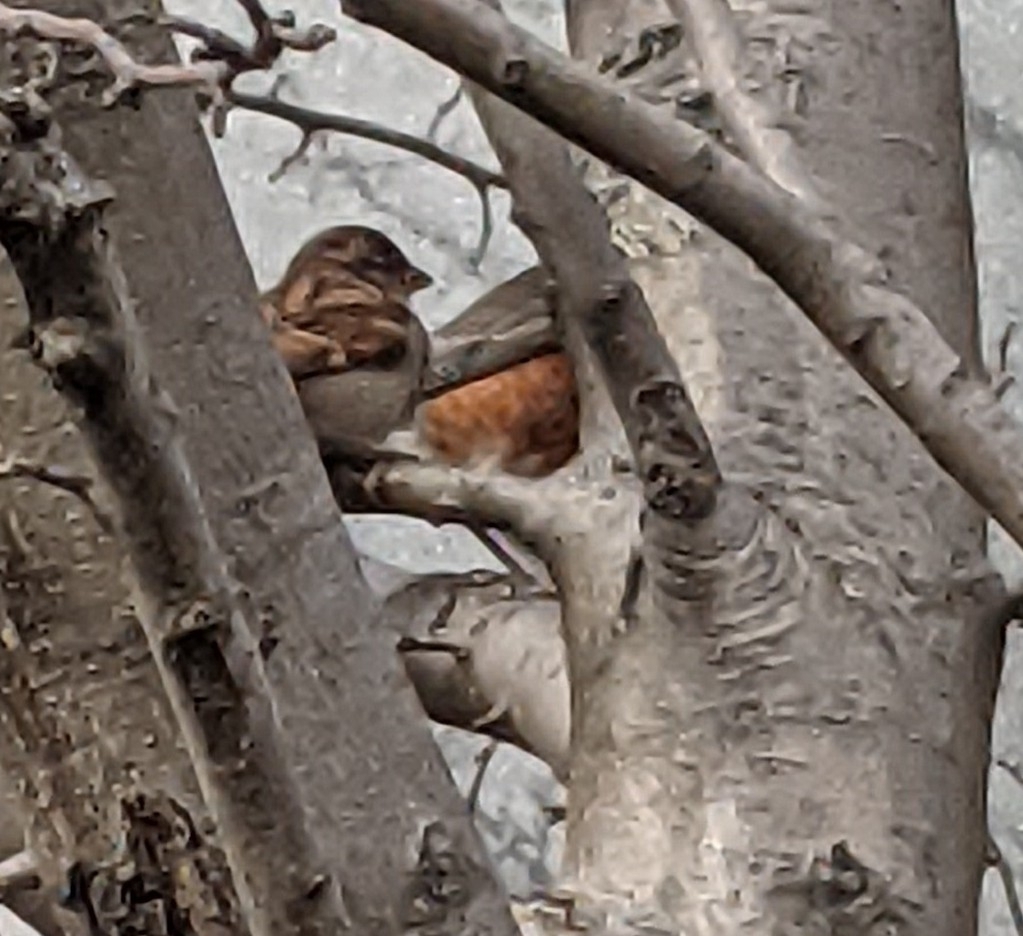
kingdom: Animalia
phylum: Chordata
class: Aves
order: Passeriformes
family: Passeridae
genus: Passer
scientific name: Passer domesticus
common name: House sparrow
